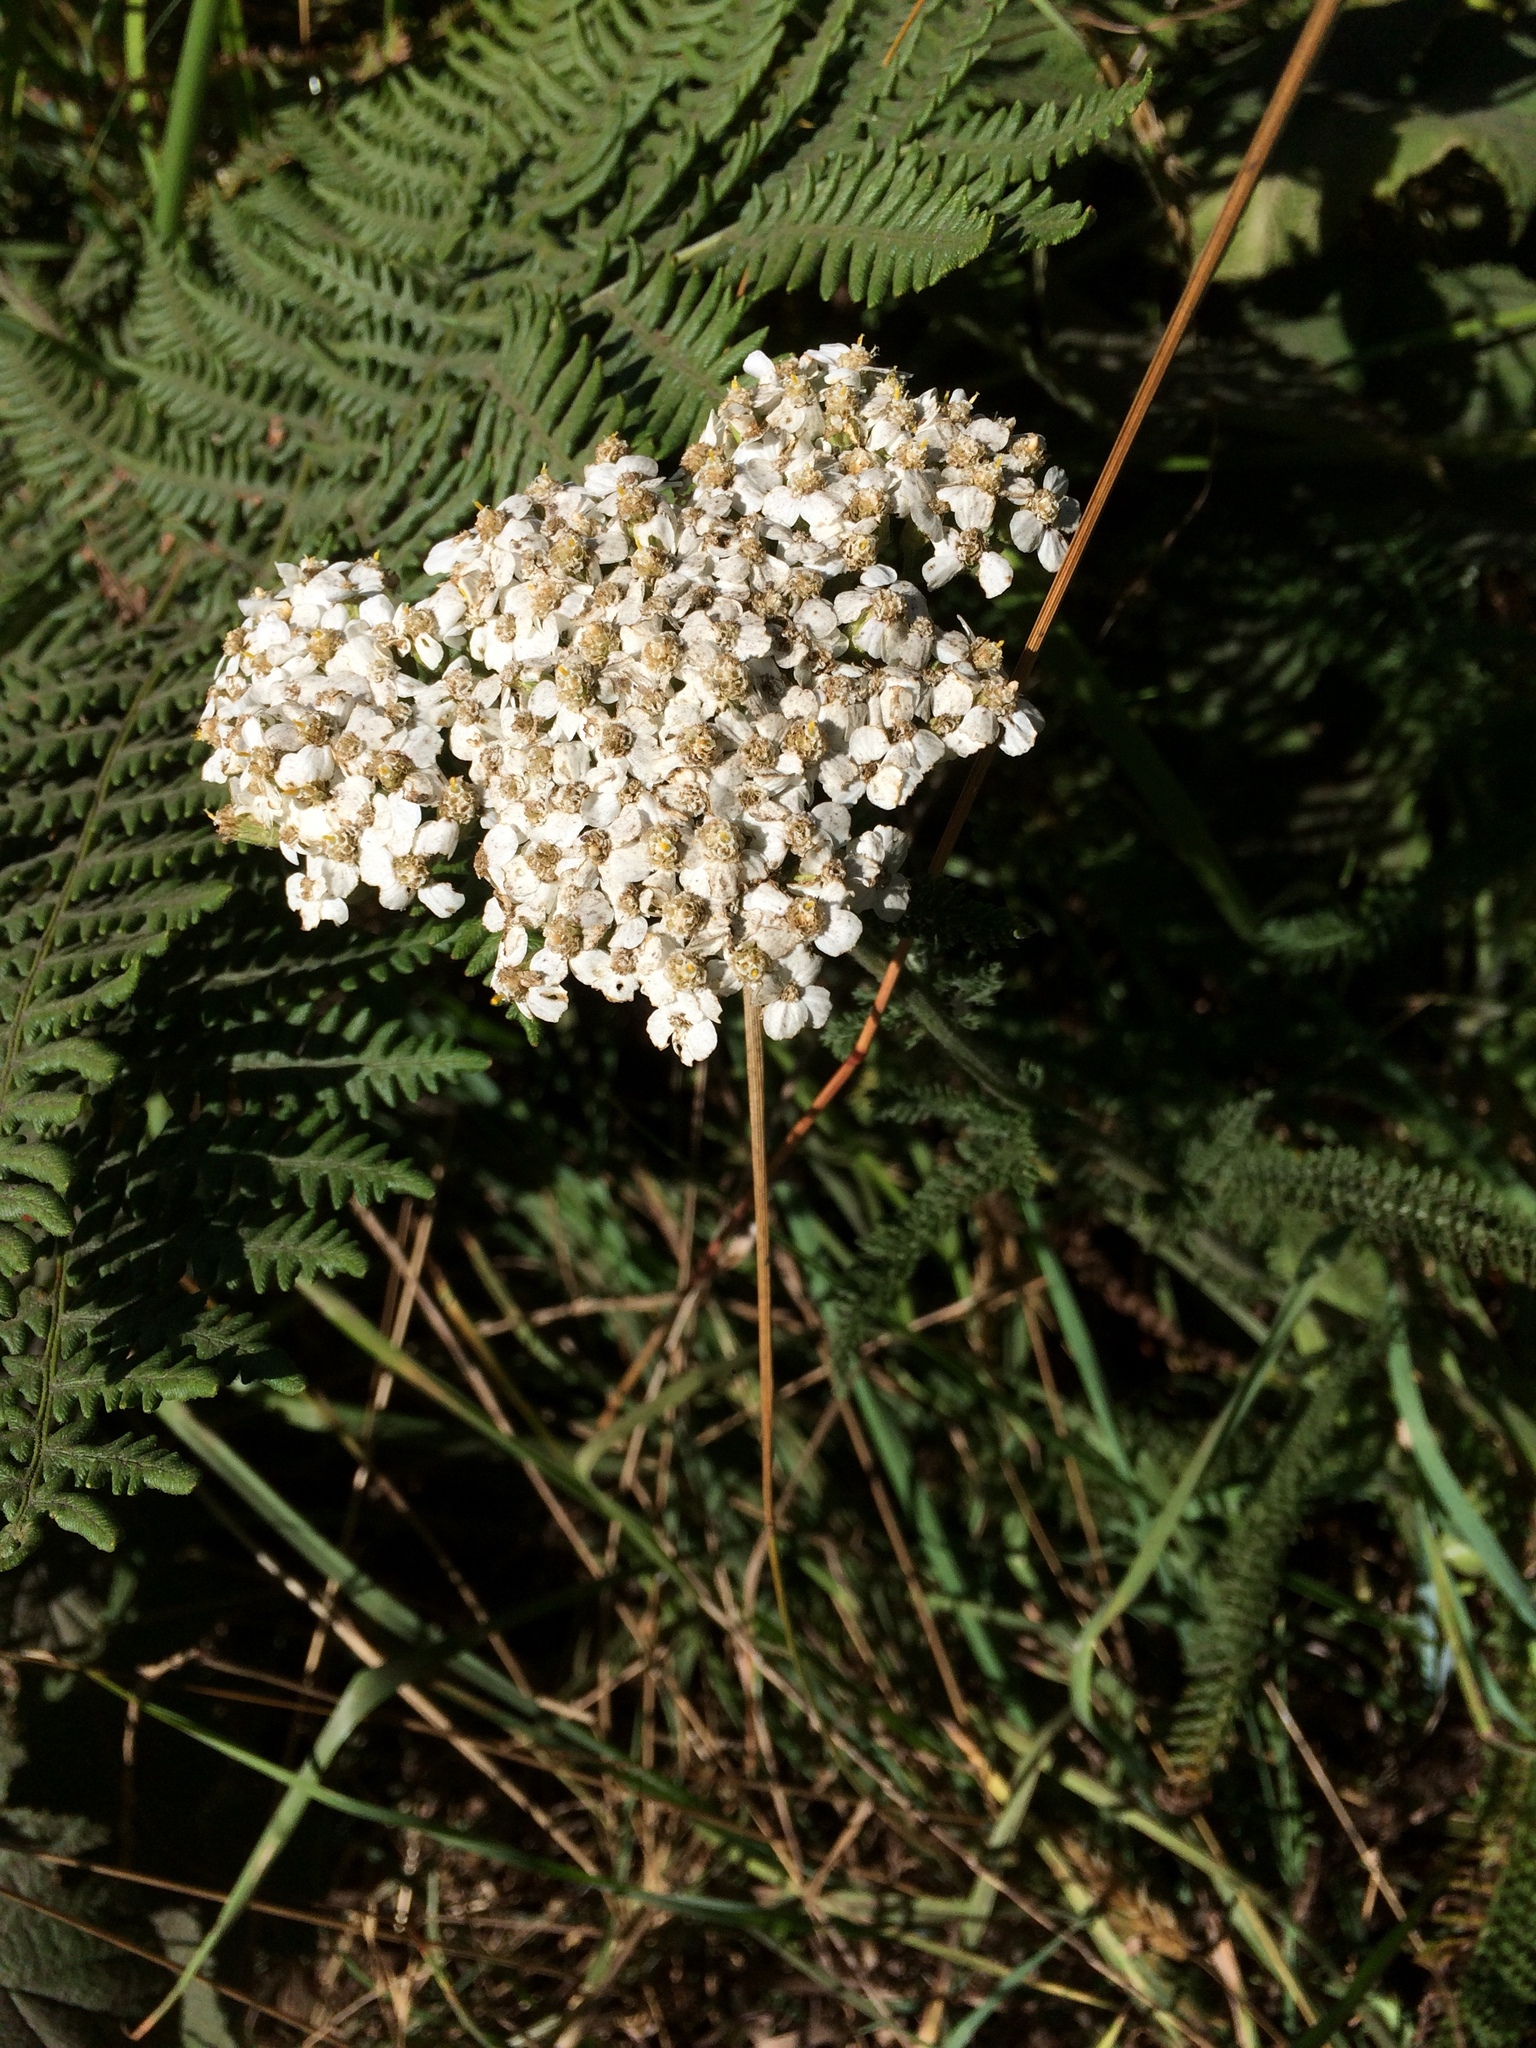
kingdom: Plantae
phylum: Tracheophyta
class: Magnoliopsida
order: Asterales
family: Asteraceae
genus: Achillea
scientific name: Achillea millefolium
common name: Yarrow
